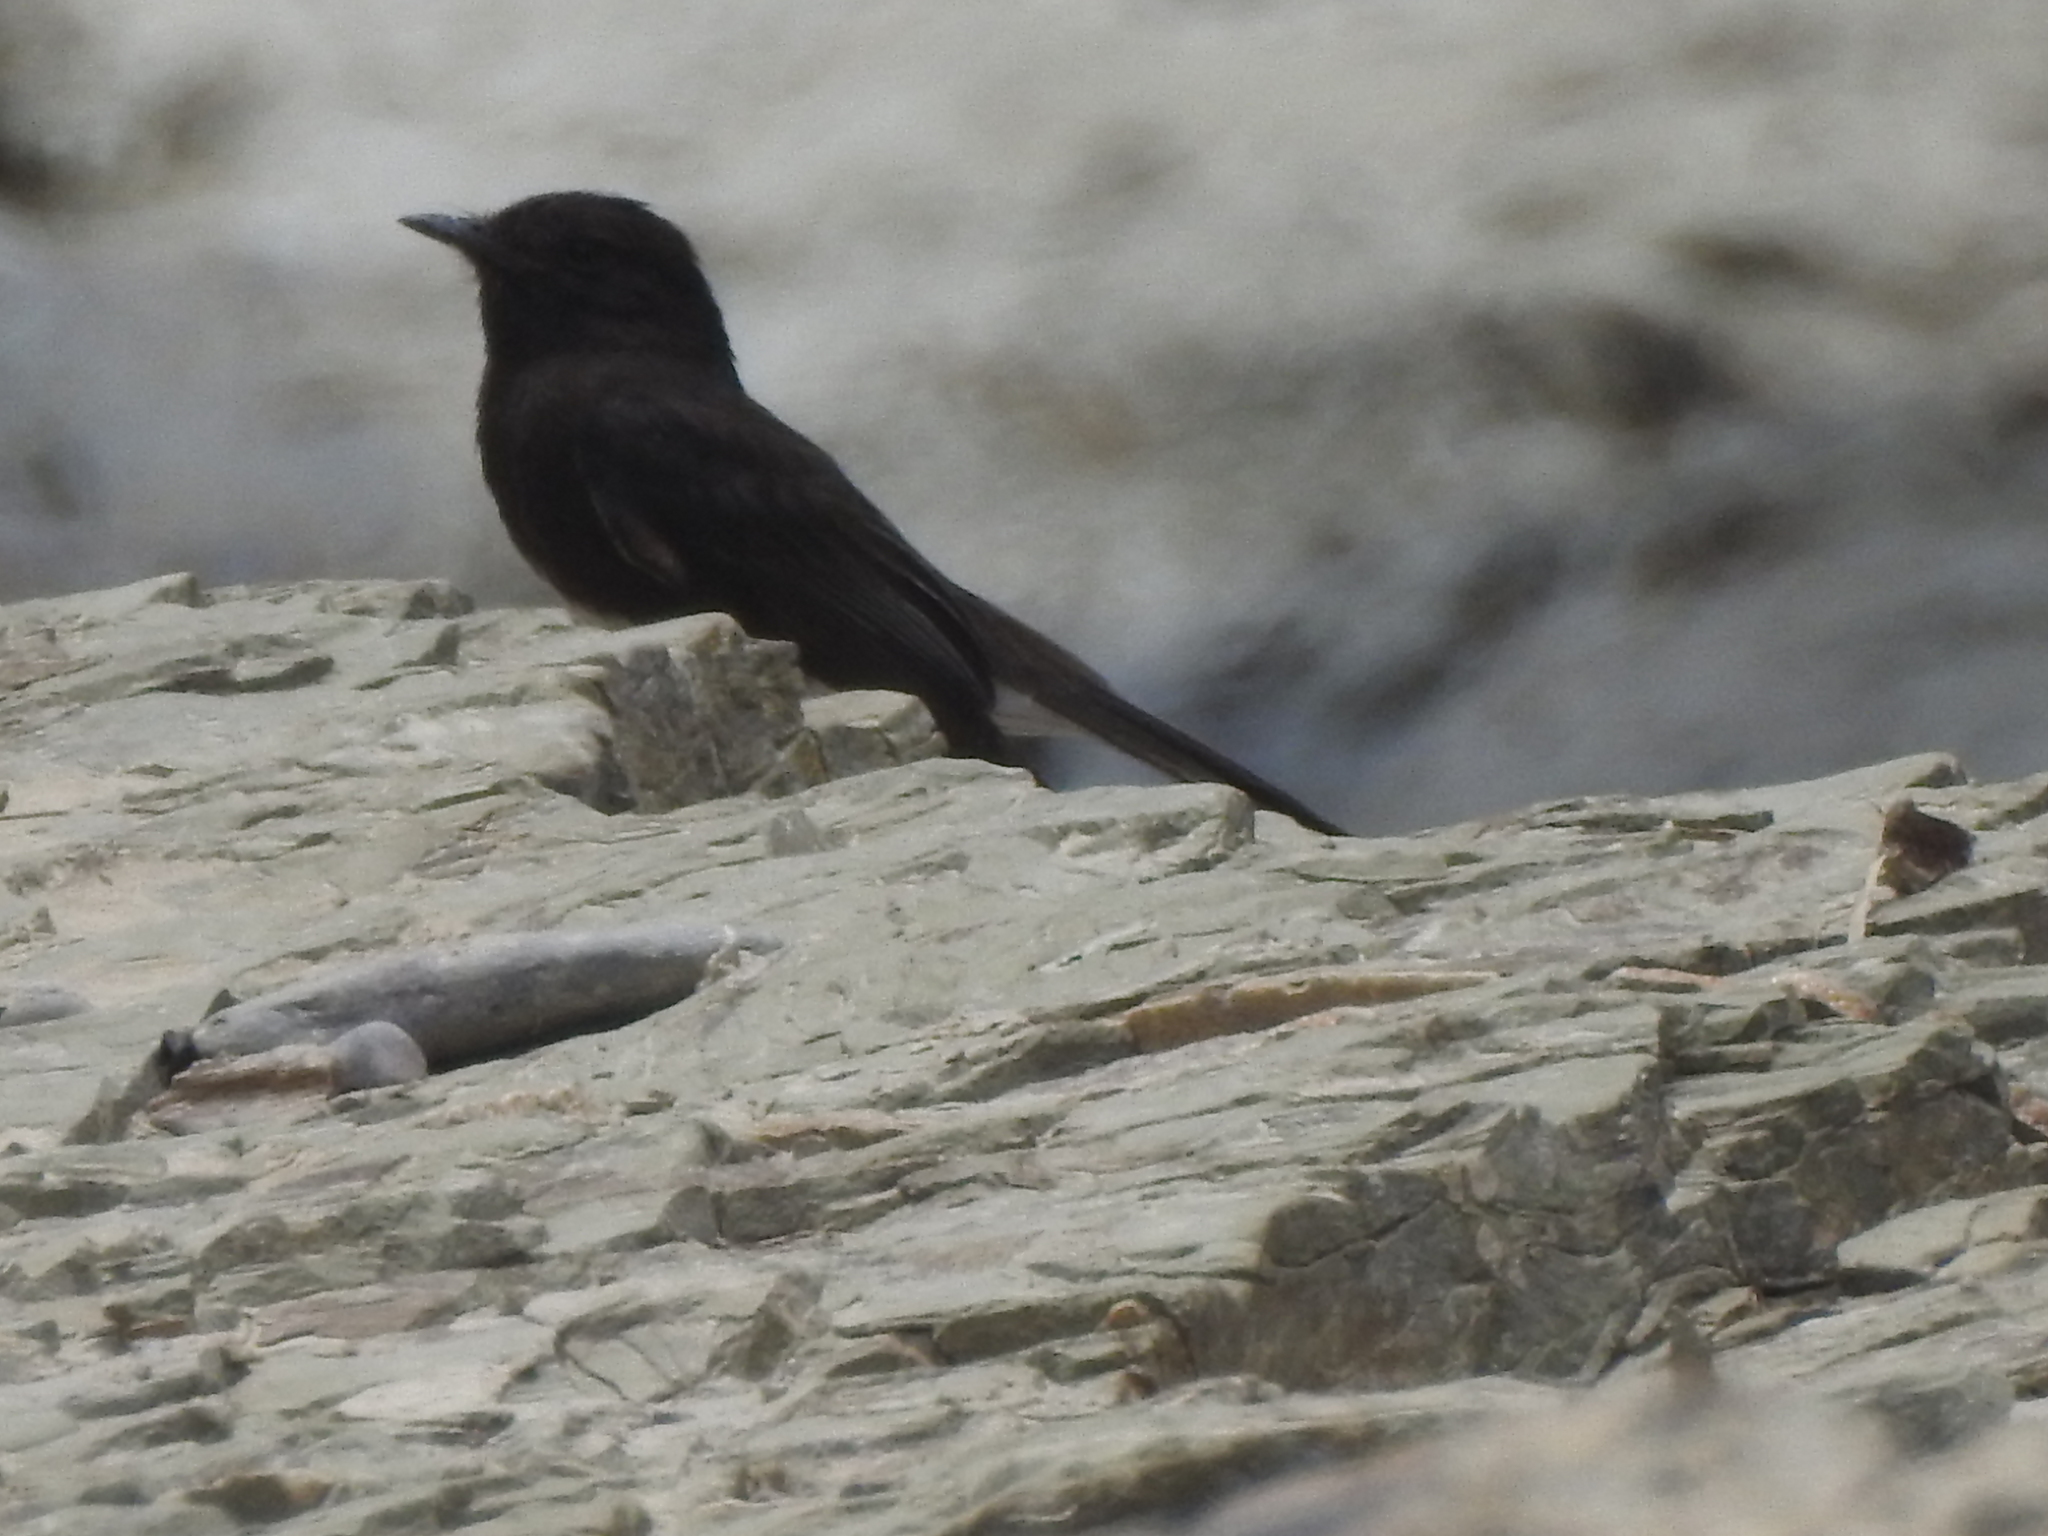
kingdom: Animalia
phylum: Chordata
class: Aves
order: Passeriformes
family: Tyrannidae
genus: Sayornis
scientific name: Sayornis nigricans
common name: Black phoebe
